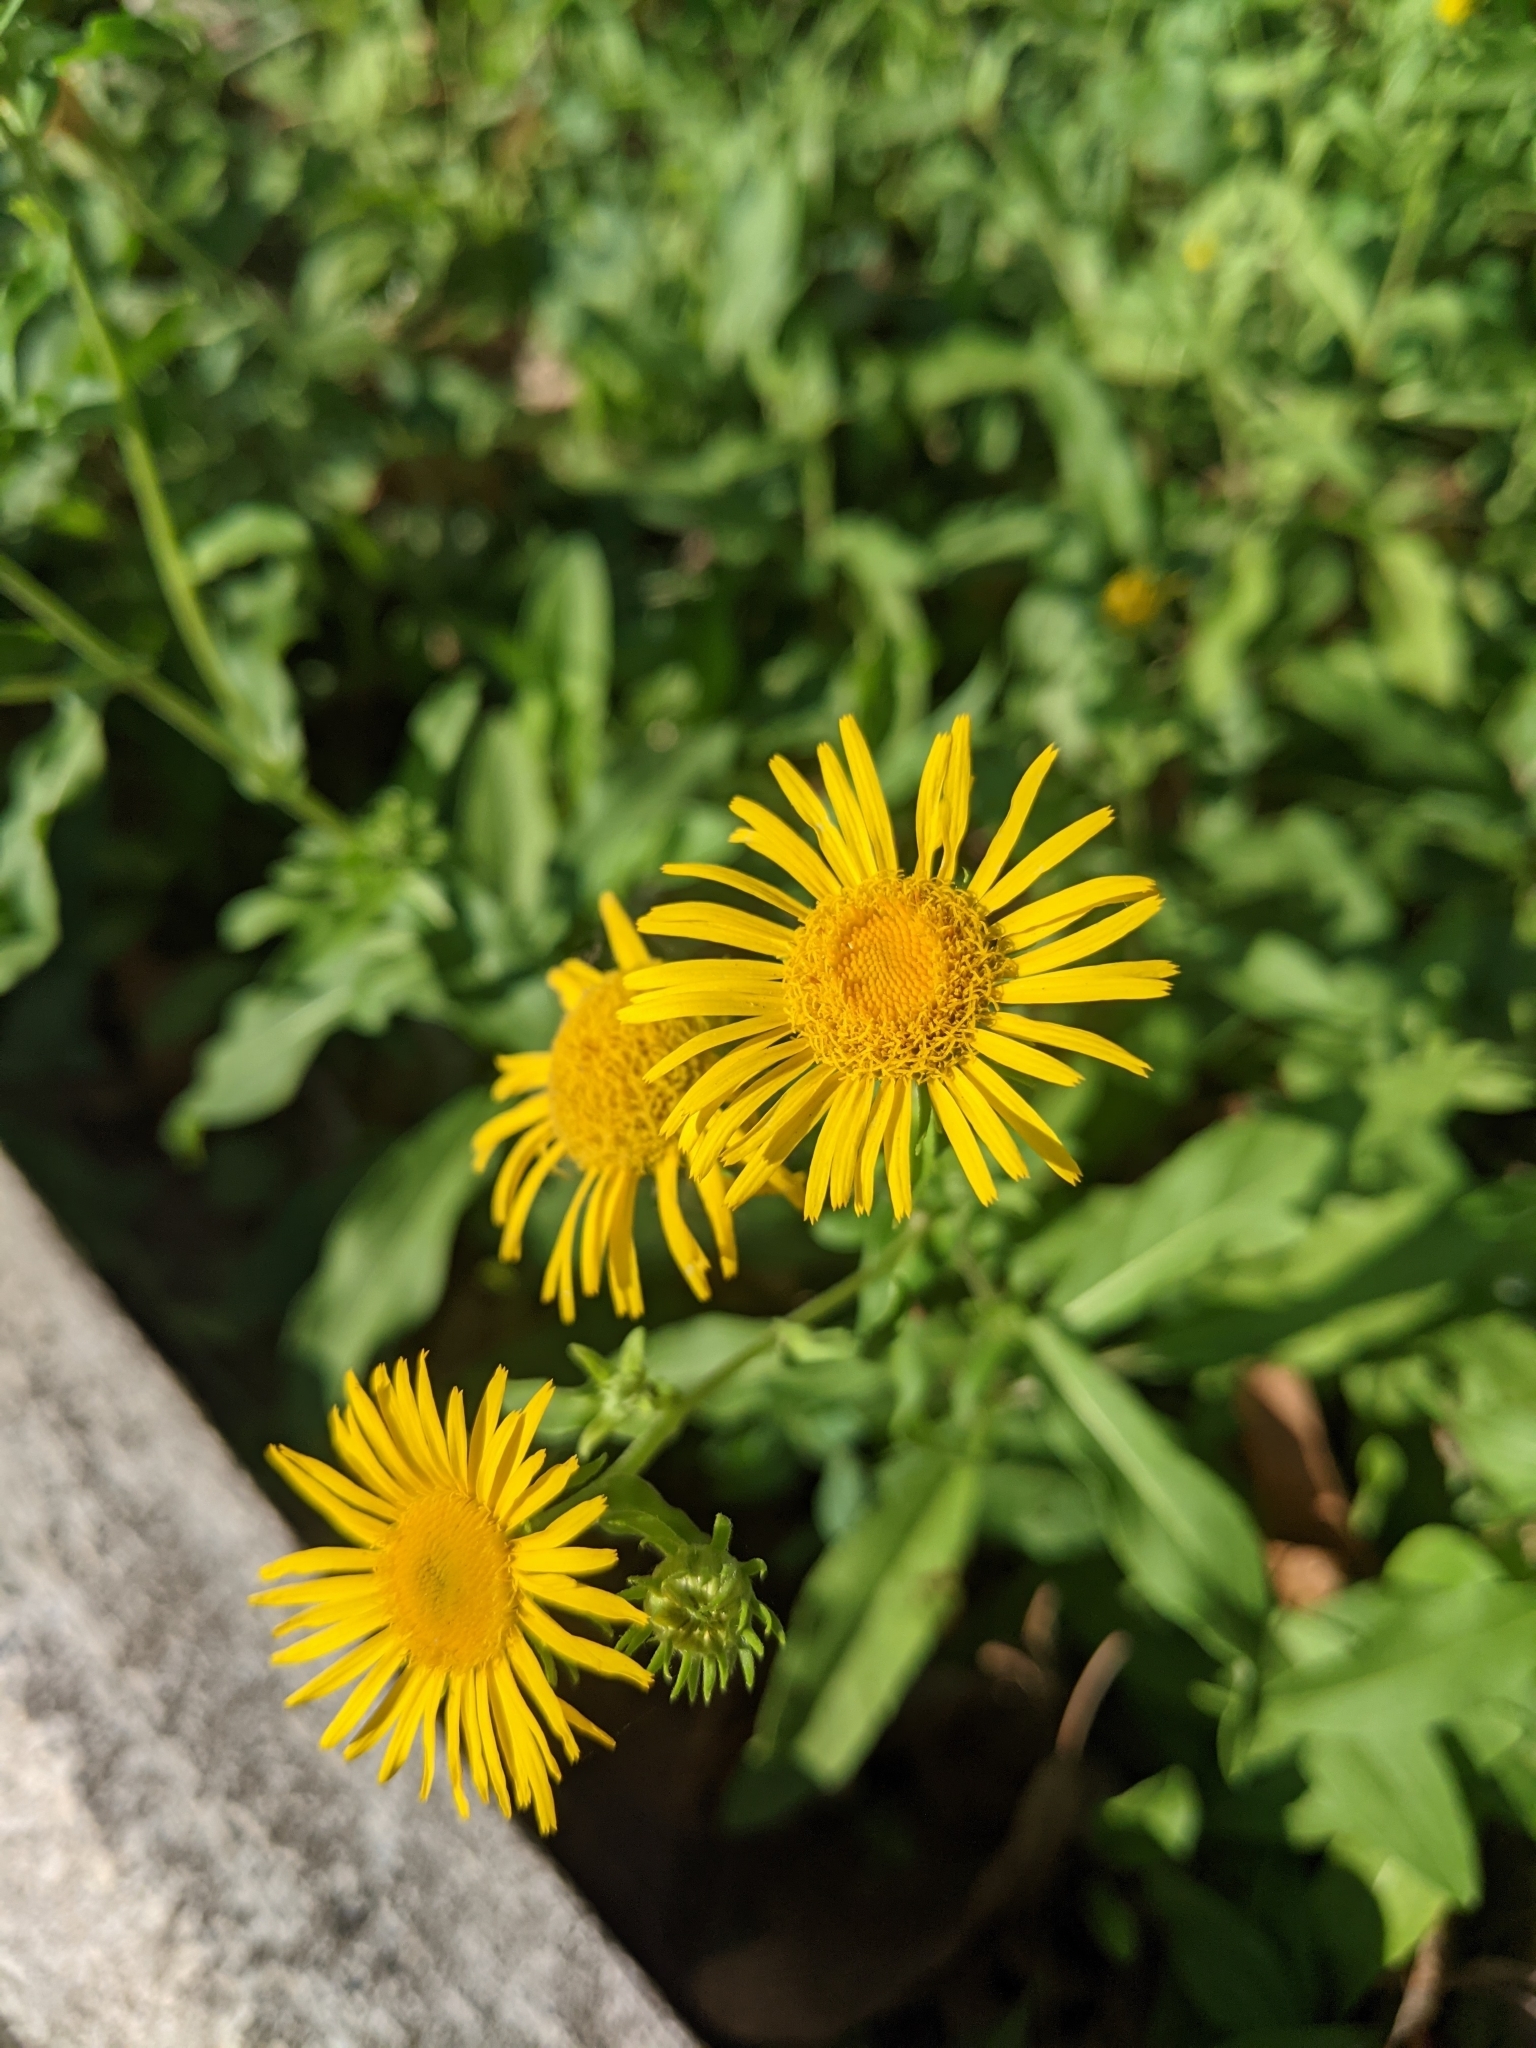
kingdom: Plantae
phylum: Tracheophyta
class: Magnoliopsida
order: Asterales
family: Asteraceae
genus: Pentanema
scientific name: Pentanema britannicum
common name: British elecampane
